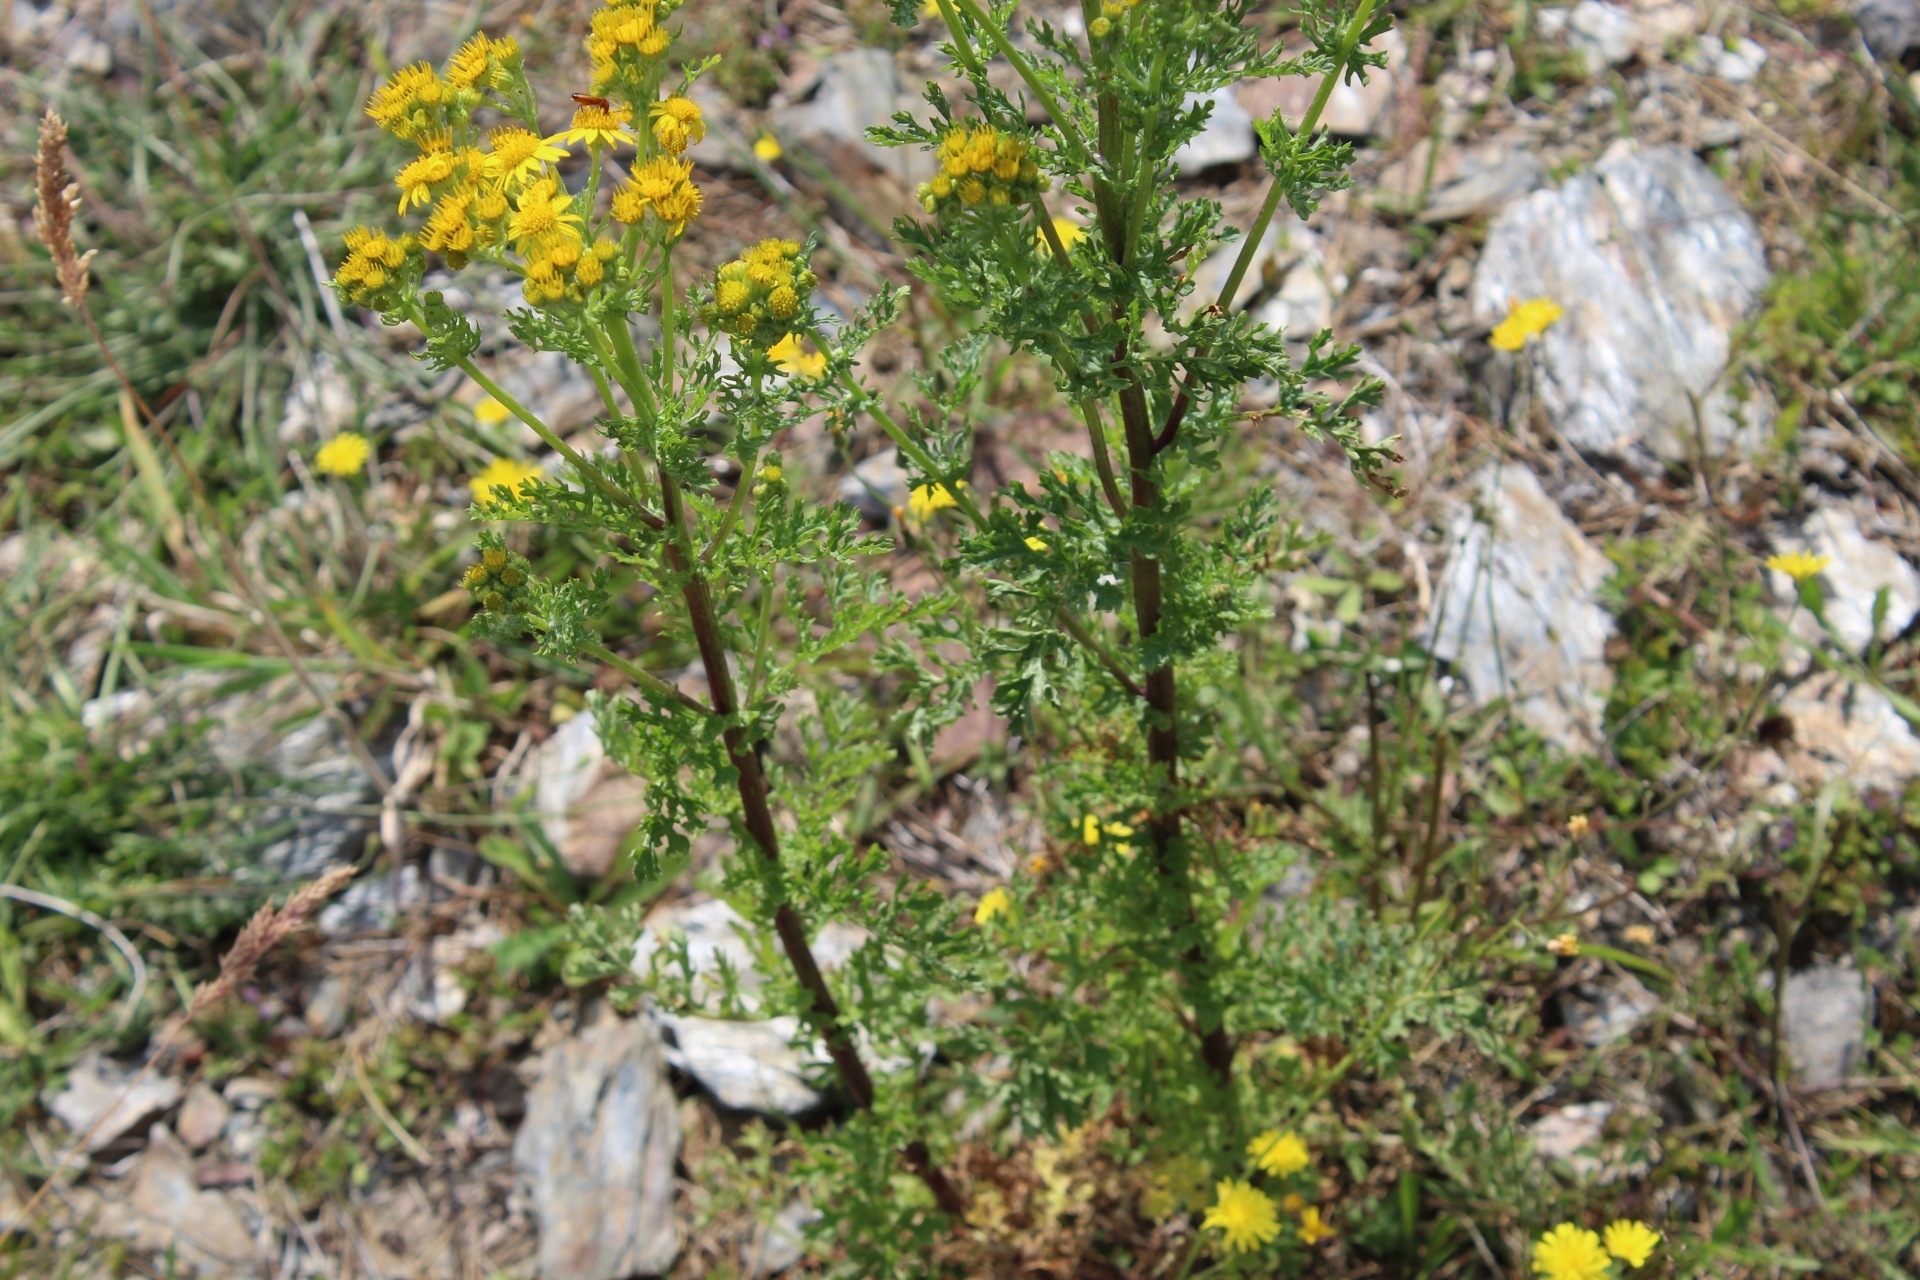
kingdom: Plantae
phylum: Tracheophyta
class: Magnoliopsida
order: Asterales
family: Asteraceae
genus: Jacobaea
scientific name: Jacobaea vulgaris
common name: Stinking willie
